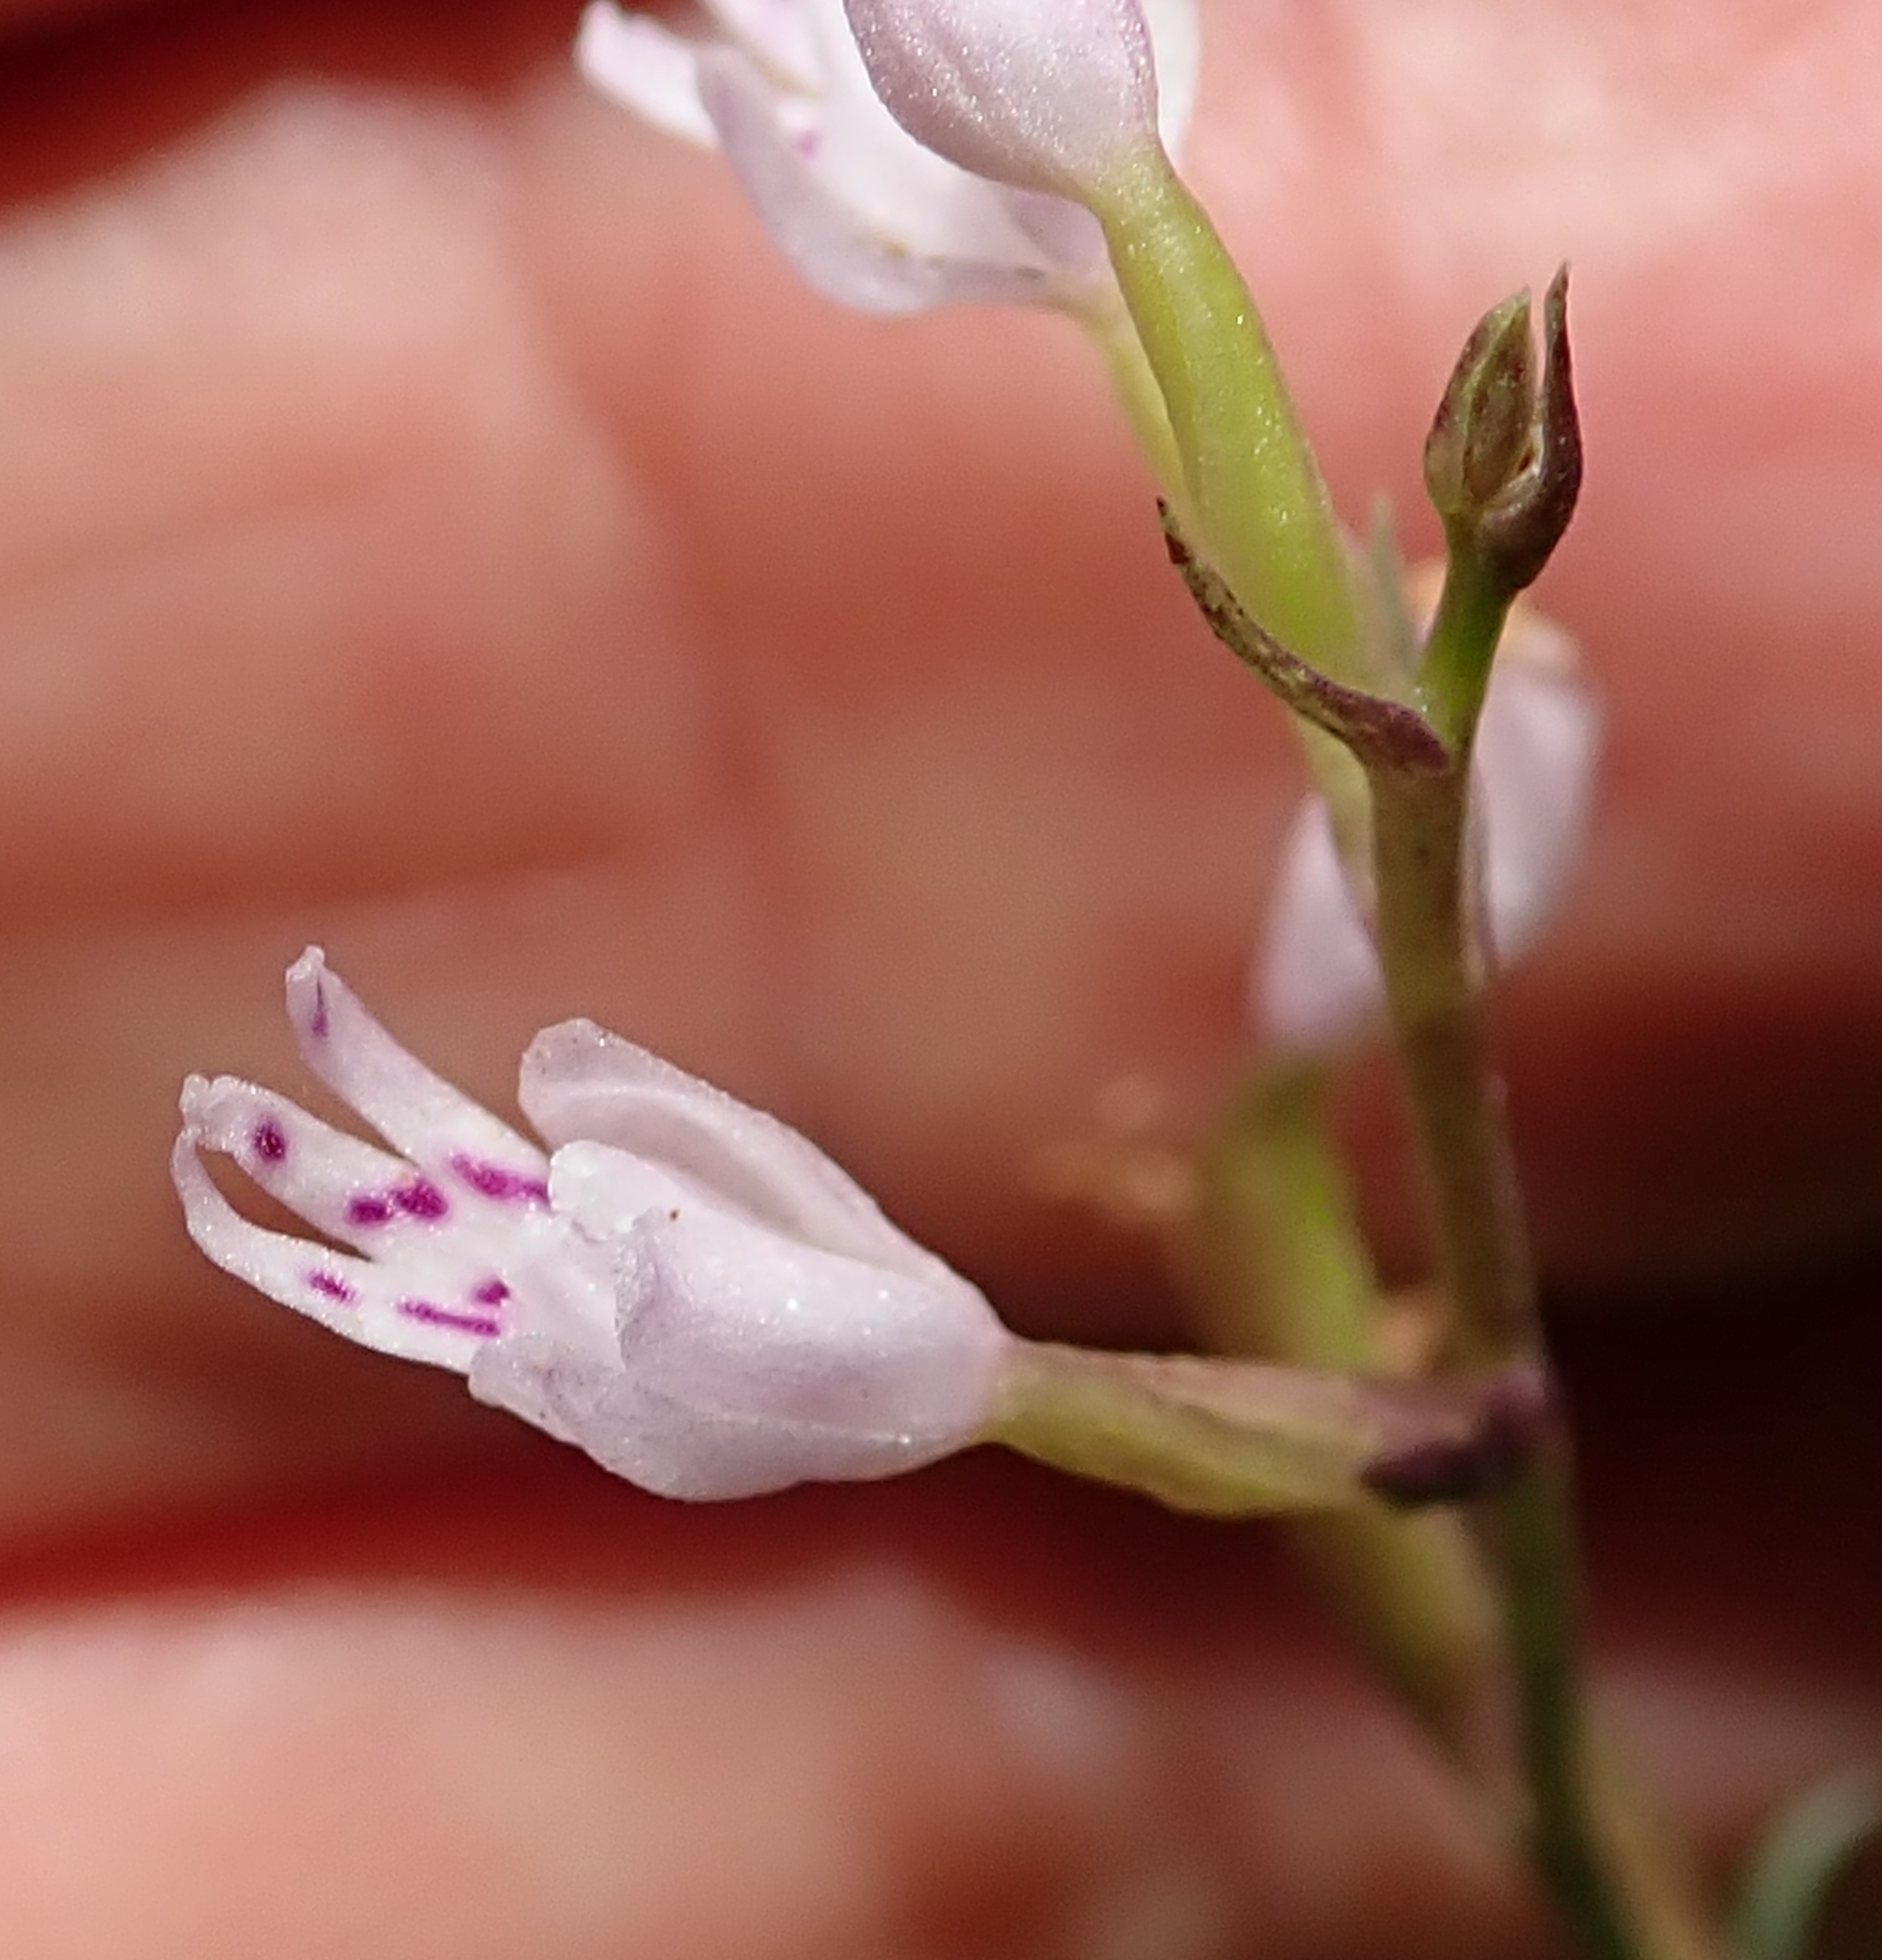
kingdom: Plantae
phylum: Tracheophyta
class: Liliopsida
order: Asparagales
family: Orchidaceae
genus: Stenoglottis
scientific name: Stenoglottis fimbriata
